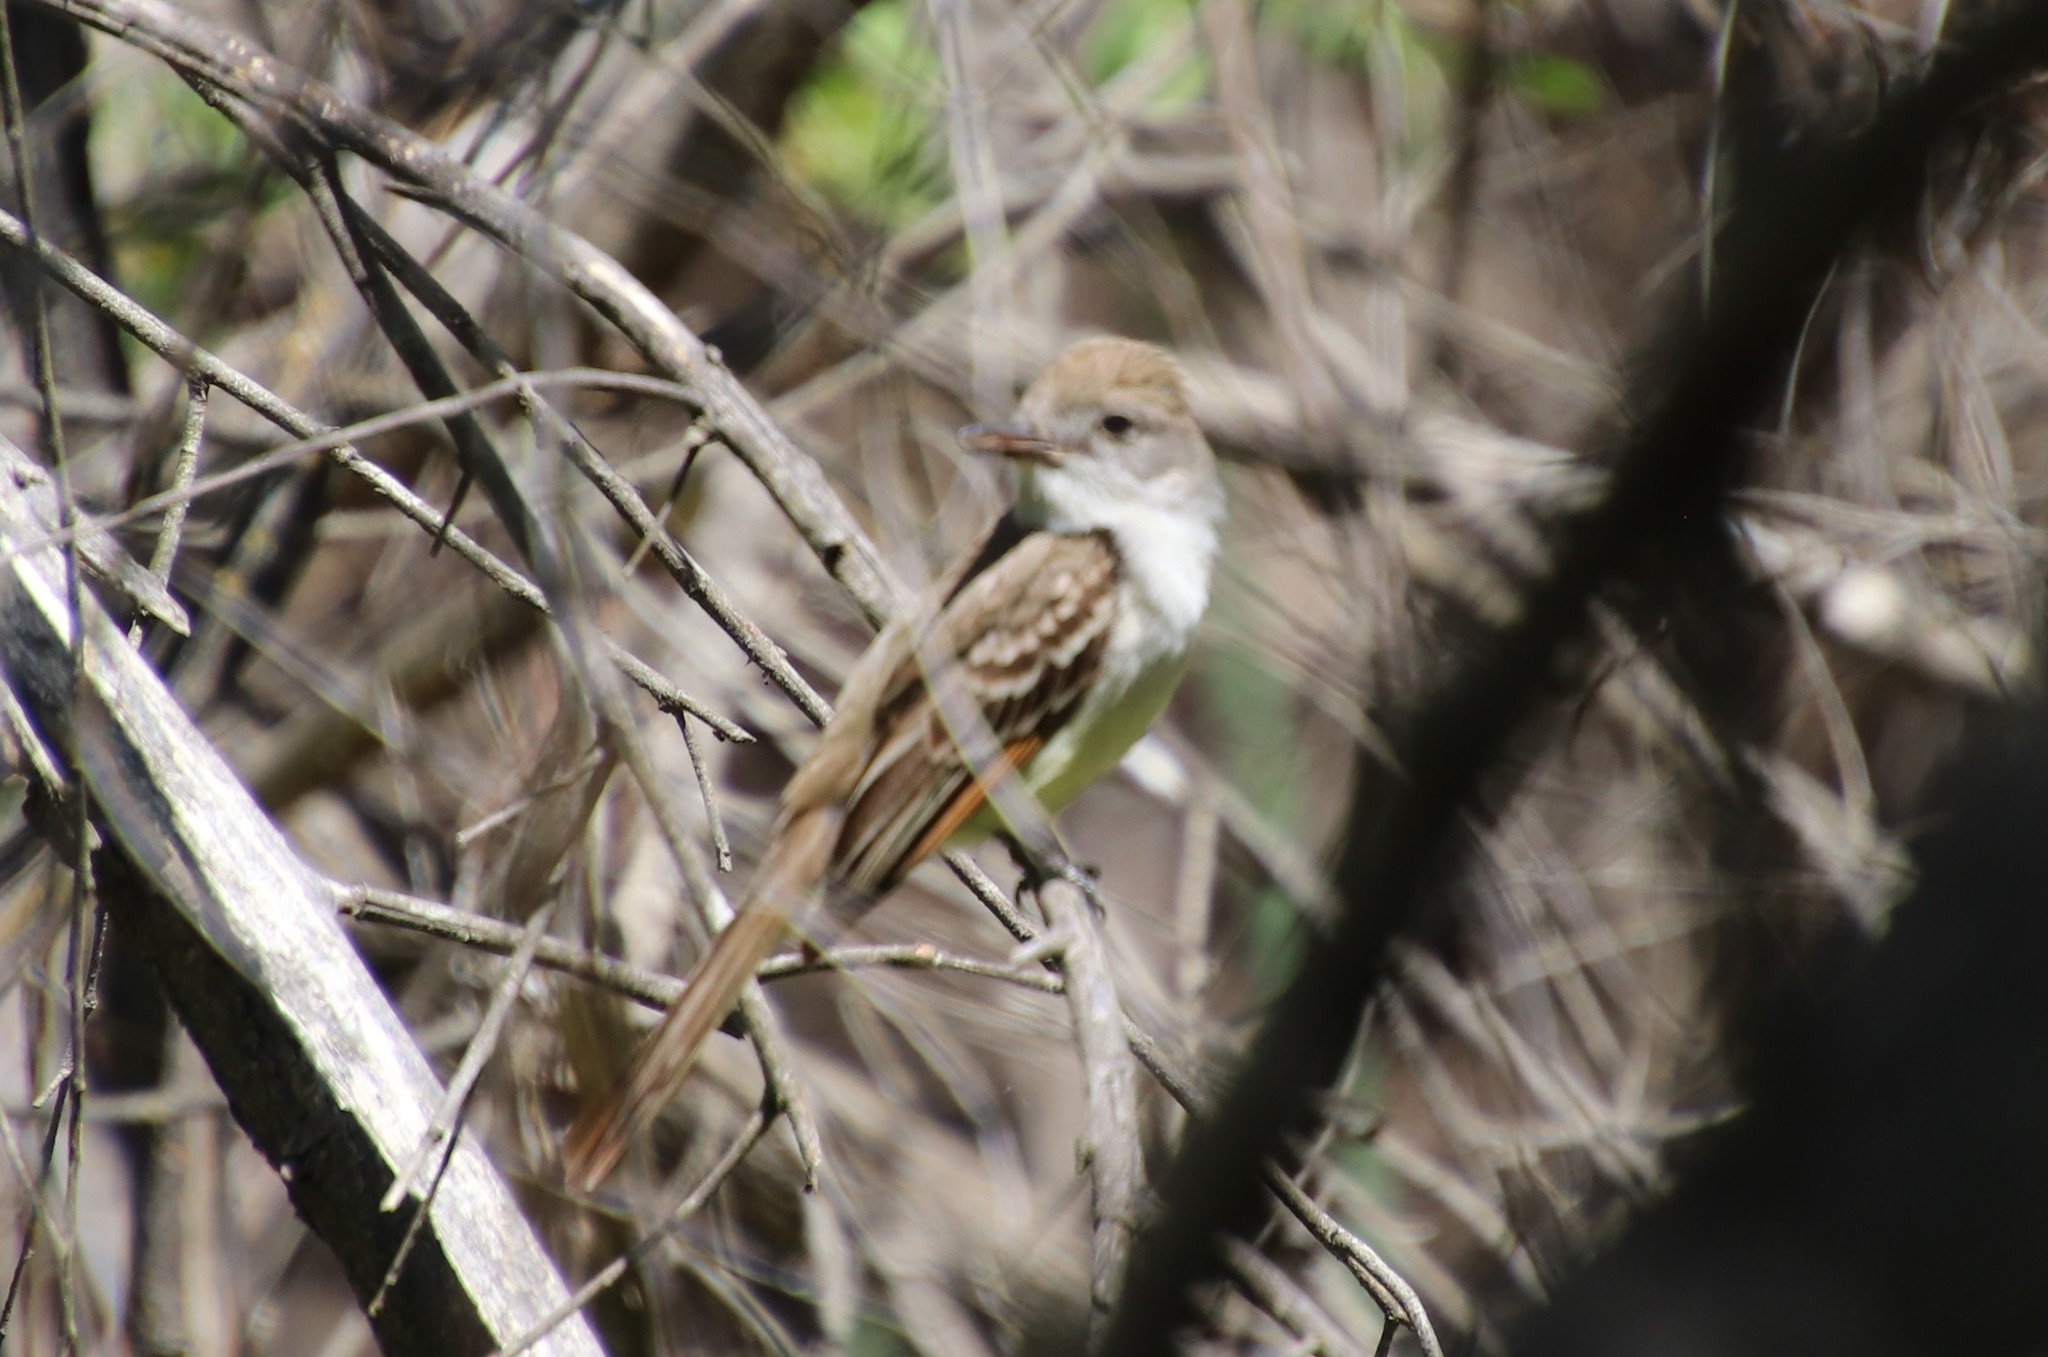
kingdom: Animalia
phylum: Chordata
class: Aves
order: Passeriformes
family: Tyrannidae
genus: Myiarchus
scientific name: Myiarchus cinerascens
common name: Ash-throated flycatcher
